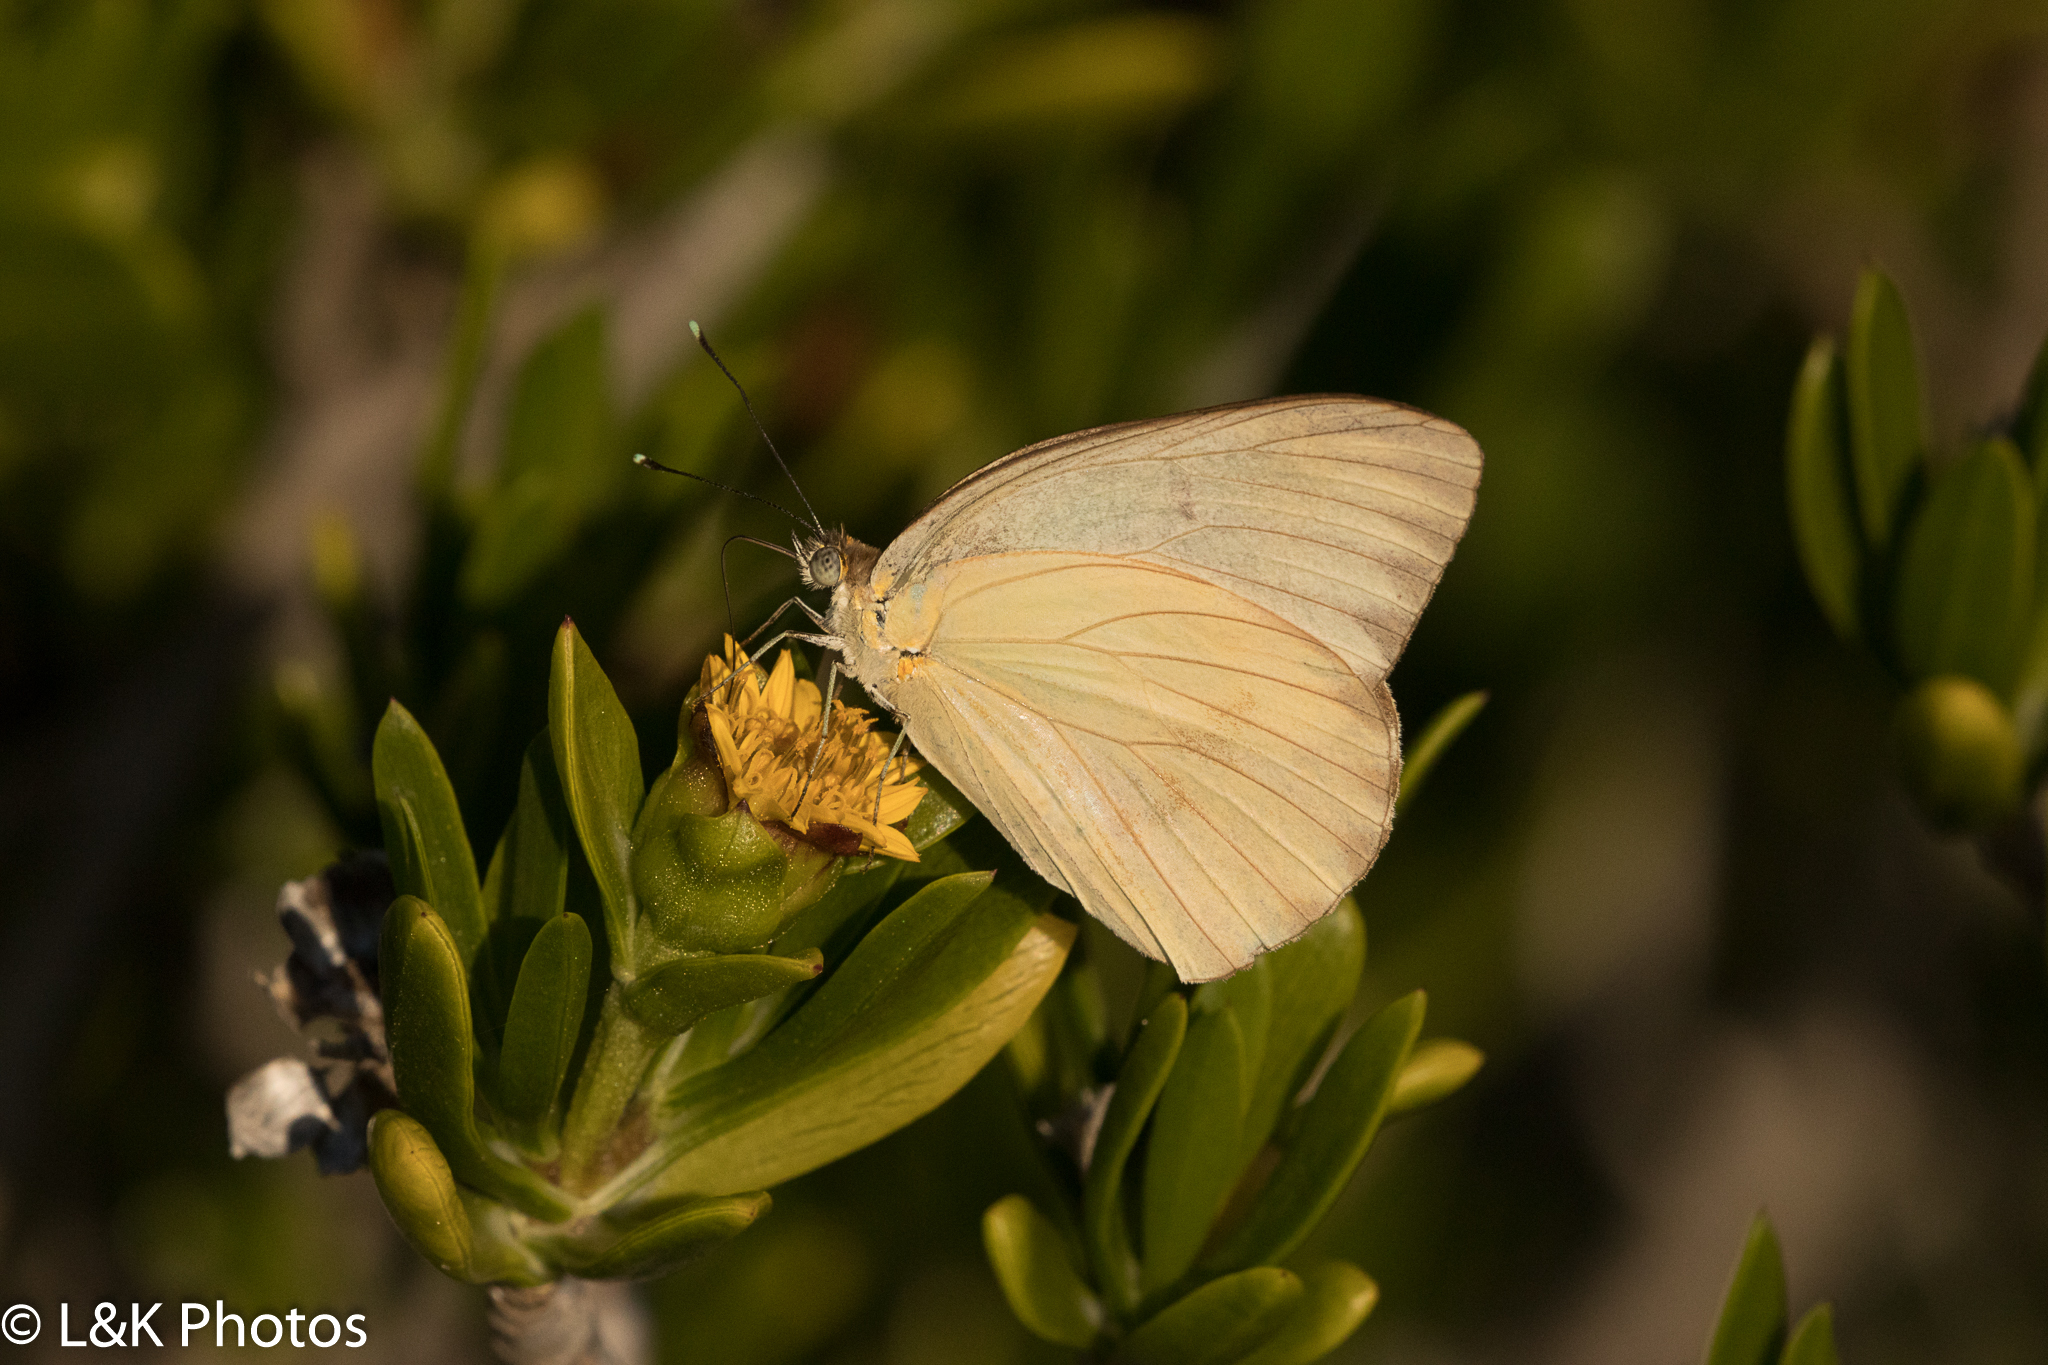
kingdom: Animalia
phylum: Arthropoda
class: Insecta
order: Lepidoptera
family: Pieridae
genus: Ascia
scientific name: Ascia monuste
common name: Great southern white
